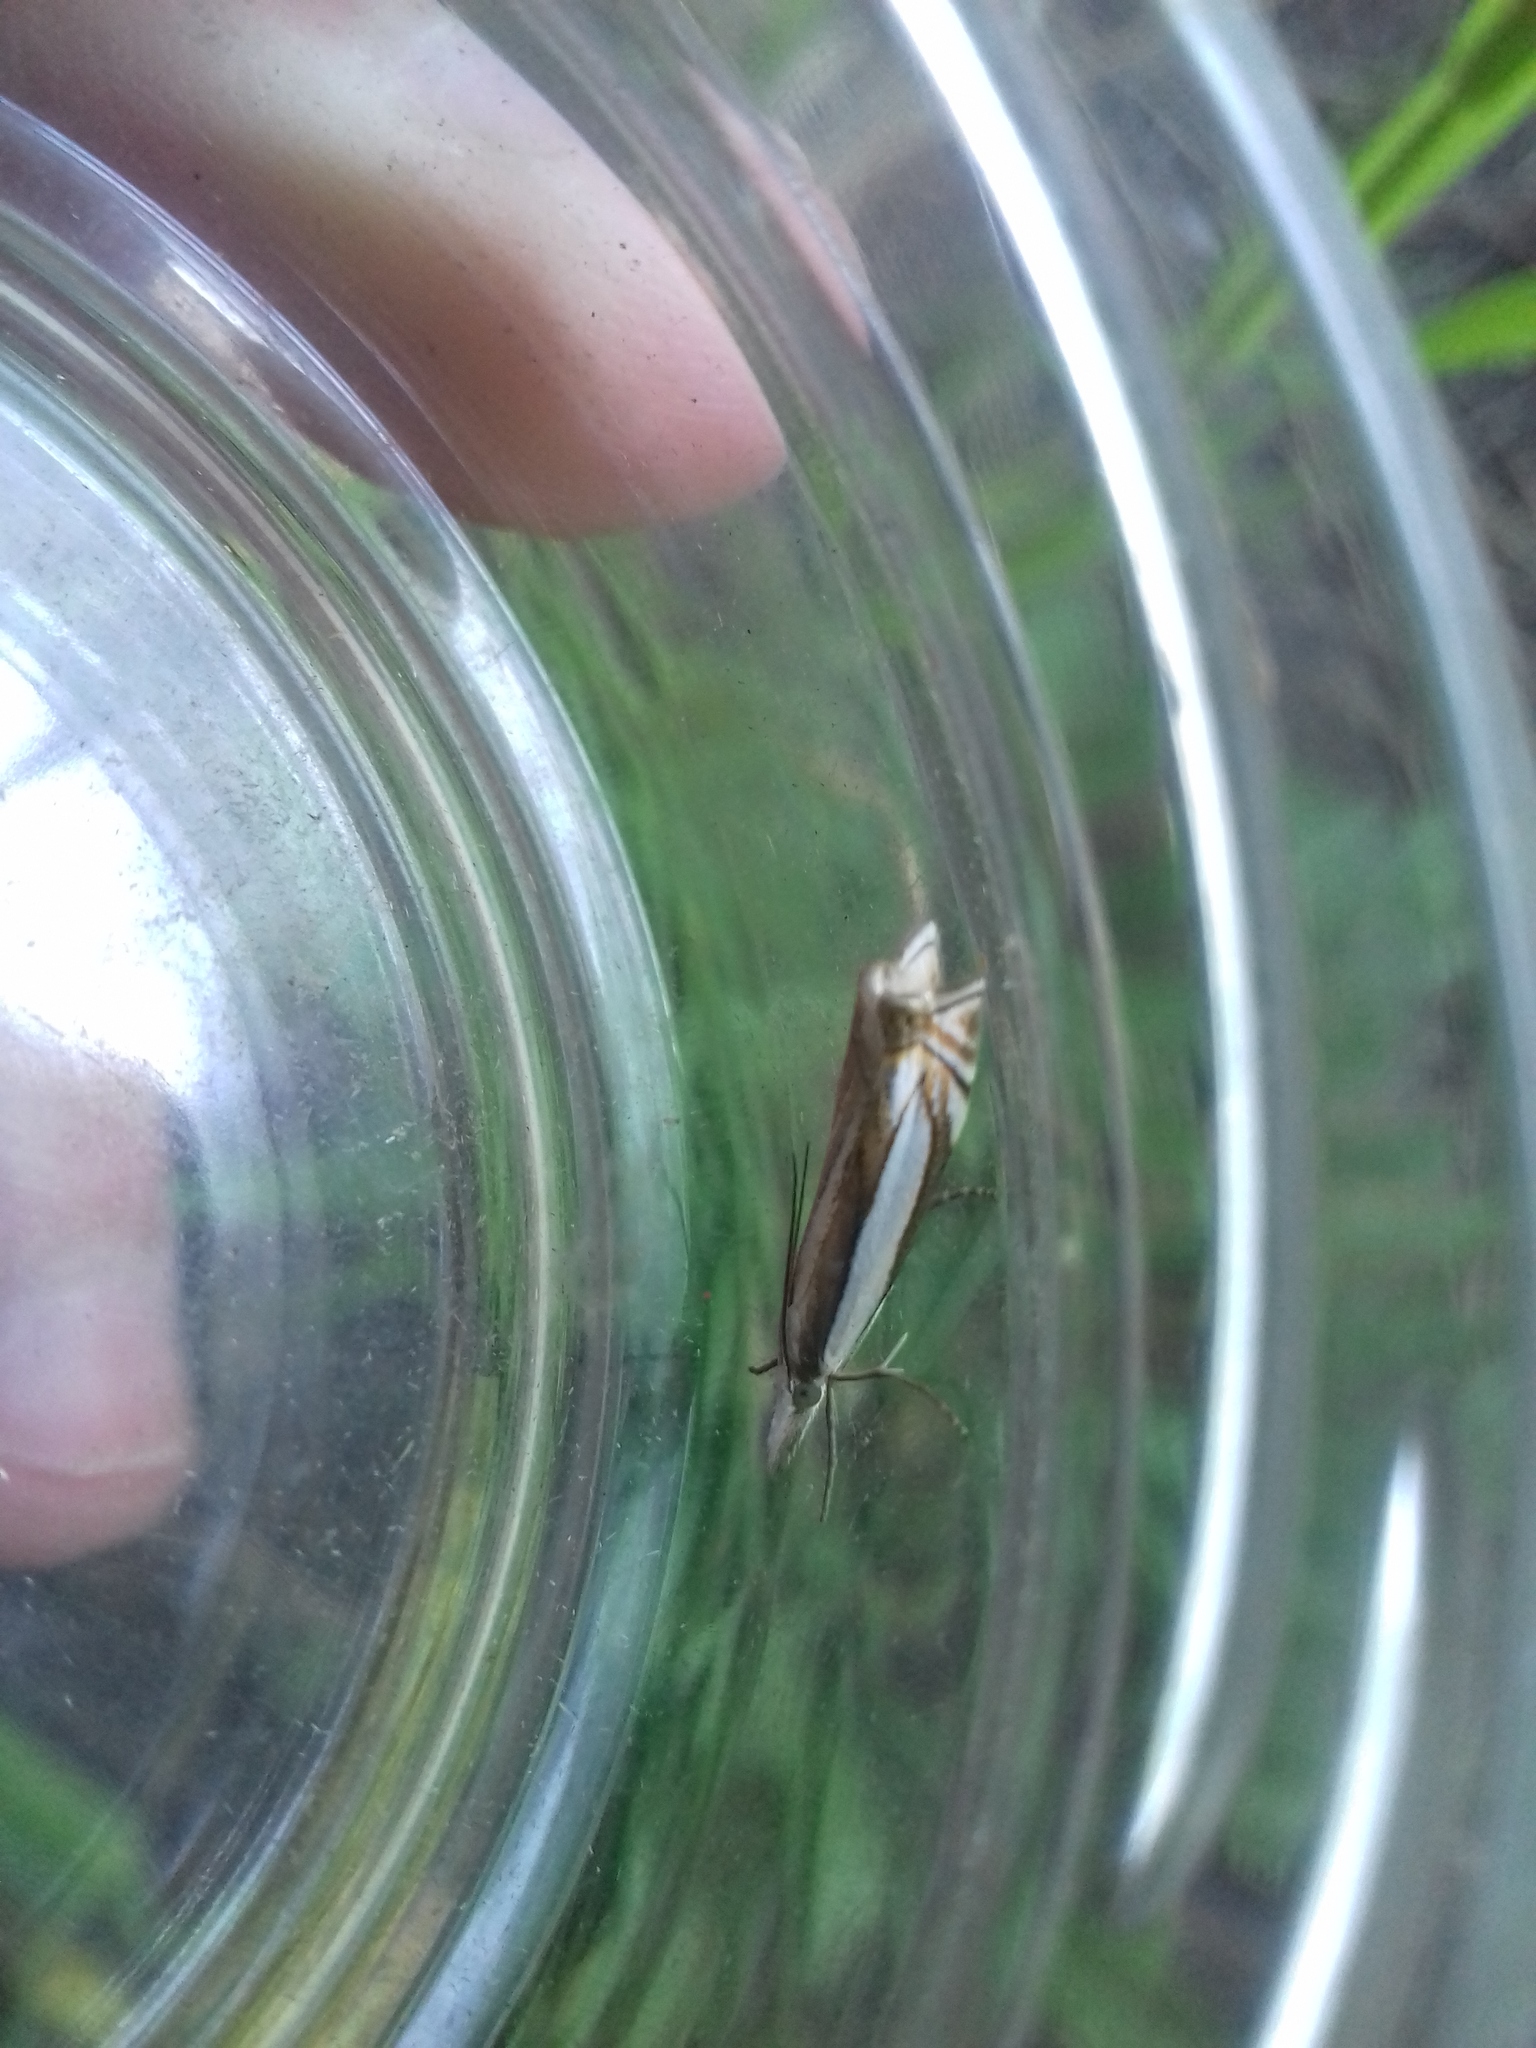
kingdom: Animalia
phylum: Arthropoda
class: Insecta
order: Lepidoptera
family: Crambidae
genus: Crambus
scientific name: Crambus pascuella
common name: Inlaid grass-veneer
